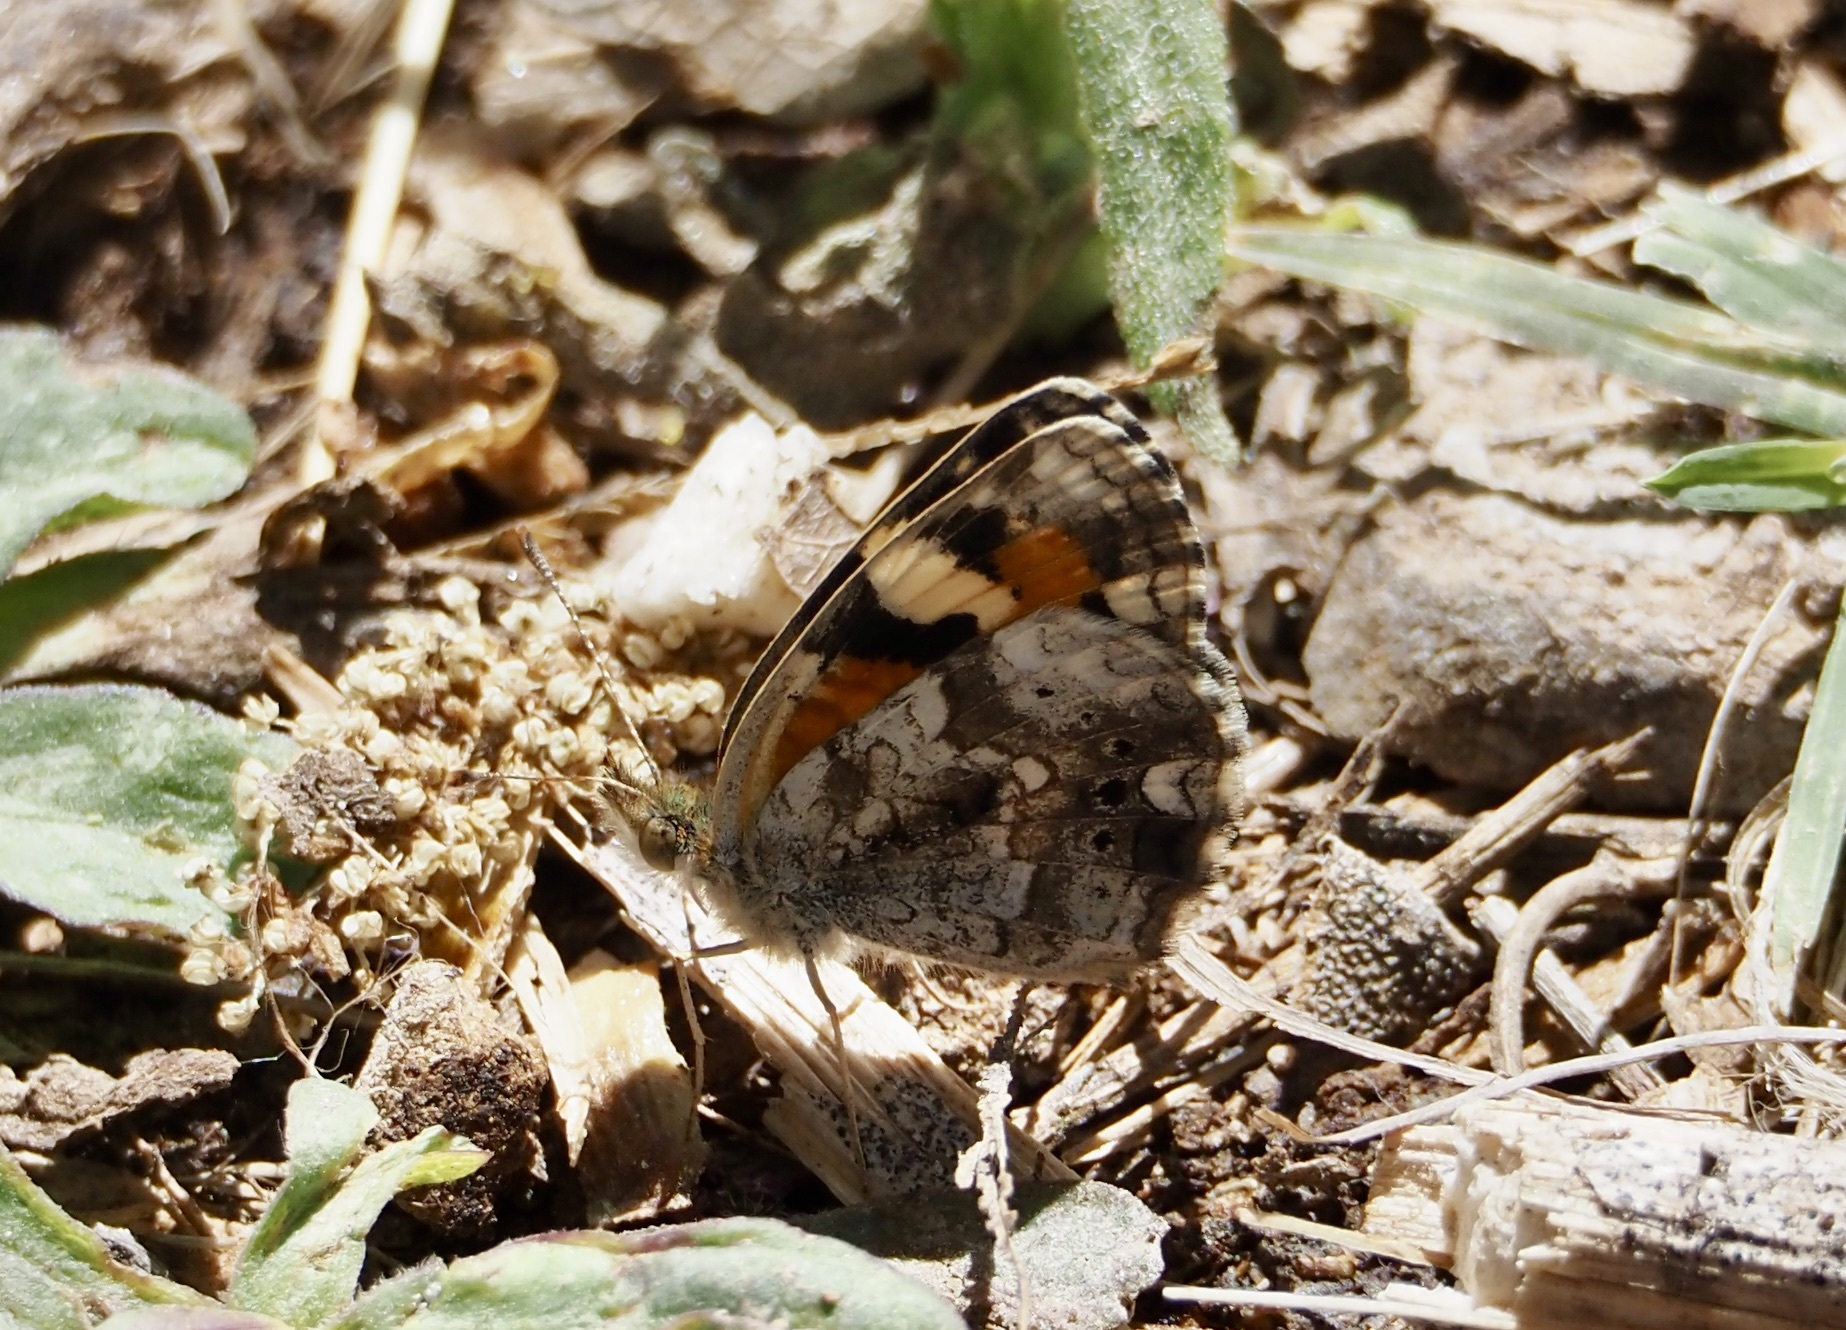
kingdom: Animalia
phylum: Arthropoda
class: Insecta
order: Lepidoptera
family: Nymphalidae
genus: Phyciodes
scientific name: Phyciodes phaon
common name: Phaon crescent
